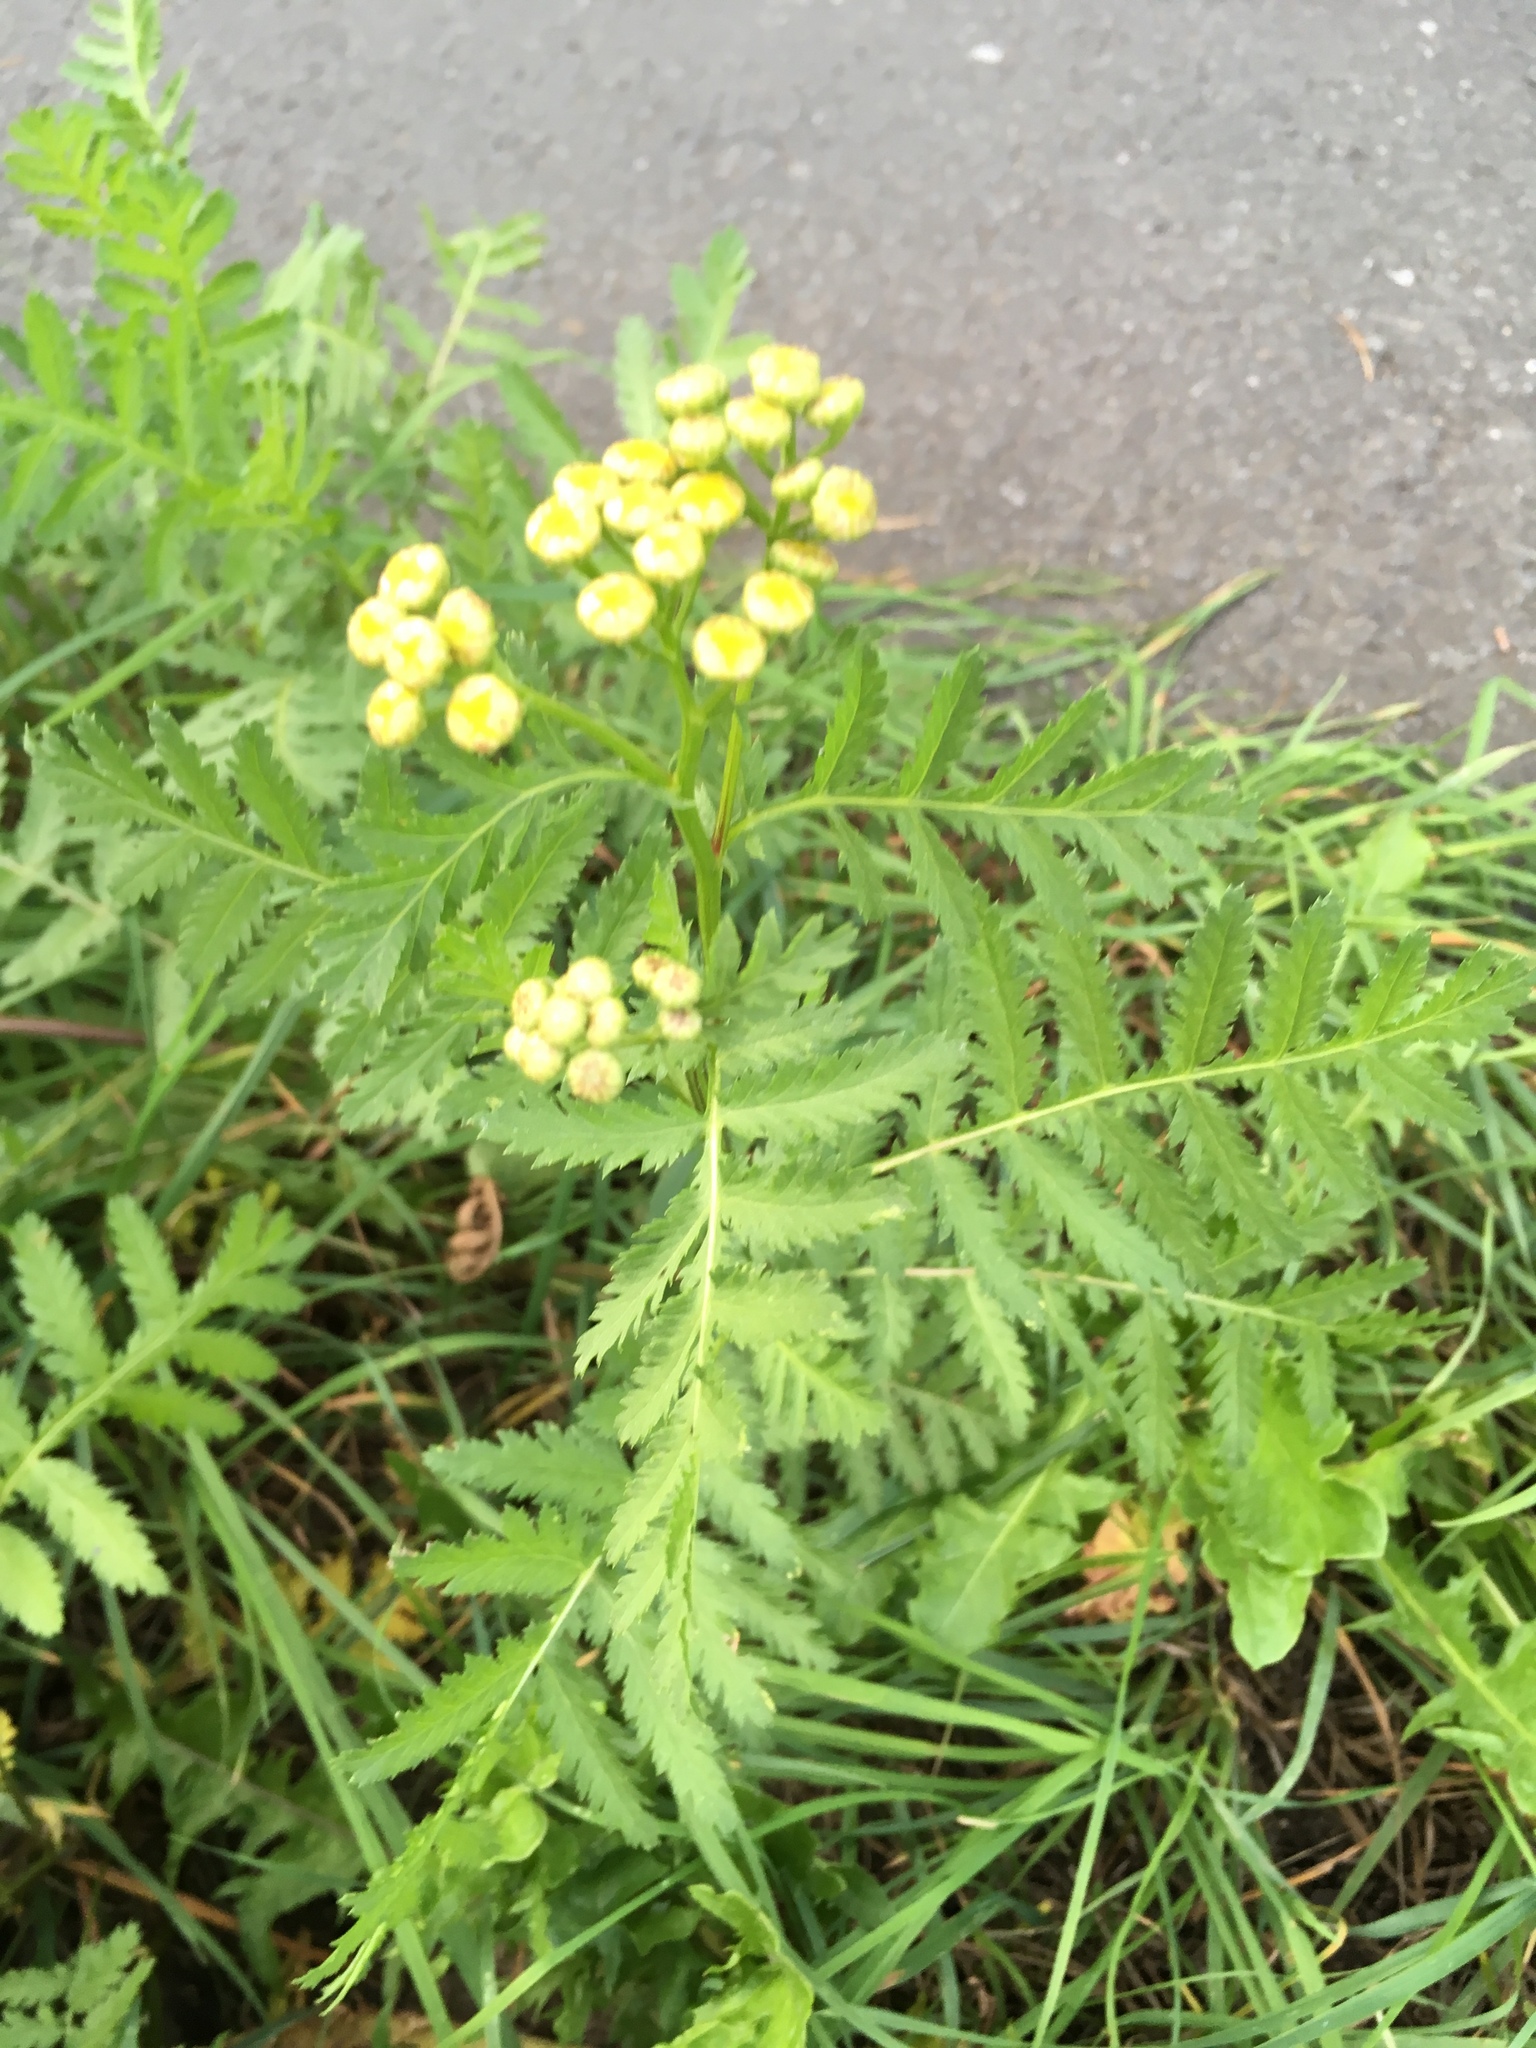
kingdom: Plantae
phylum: Tracheophyta
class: Magnoliopsida
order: Asterales
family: Asteraceae
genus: Tanacetum
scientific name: Tanacetum vulgare
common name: Common tansy
